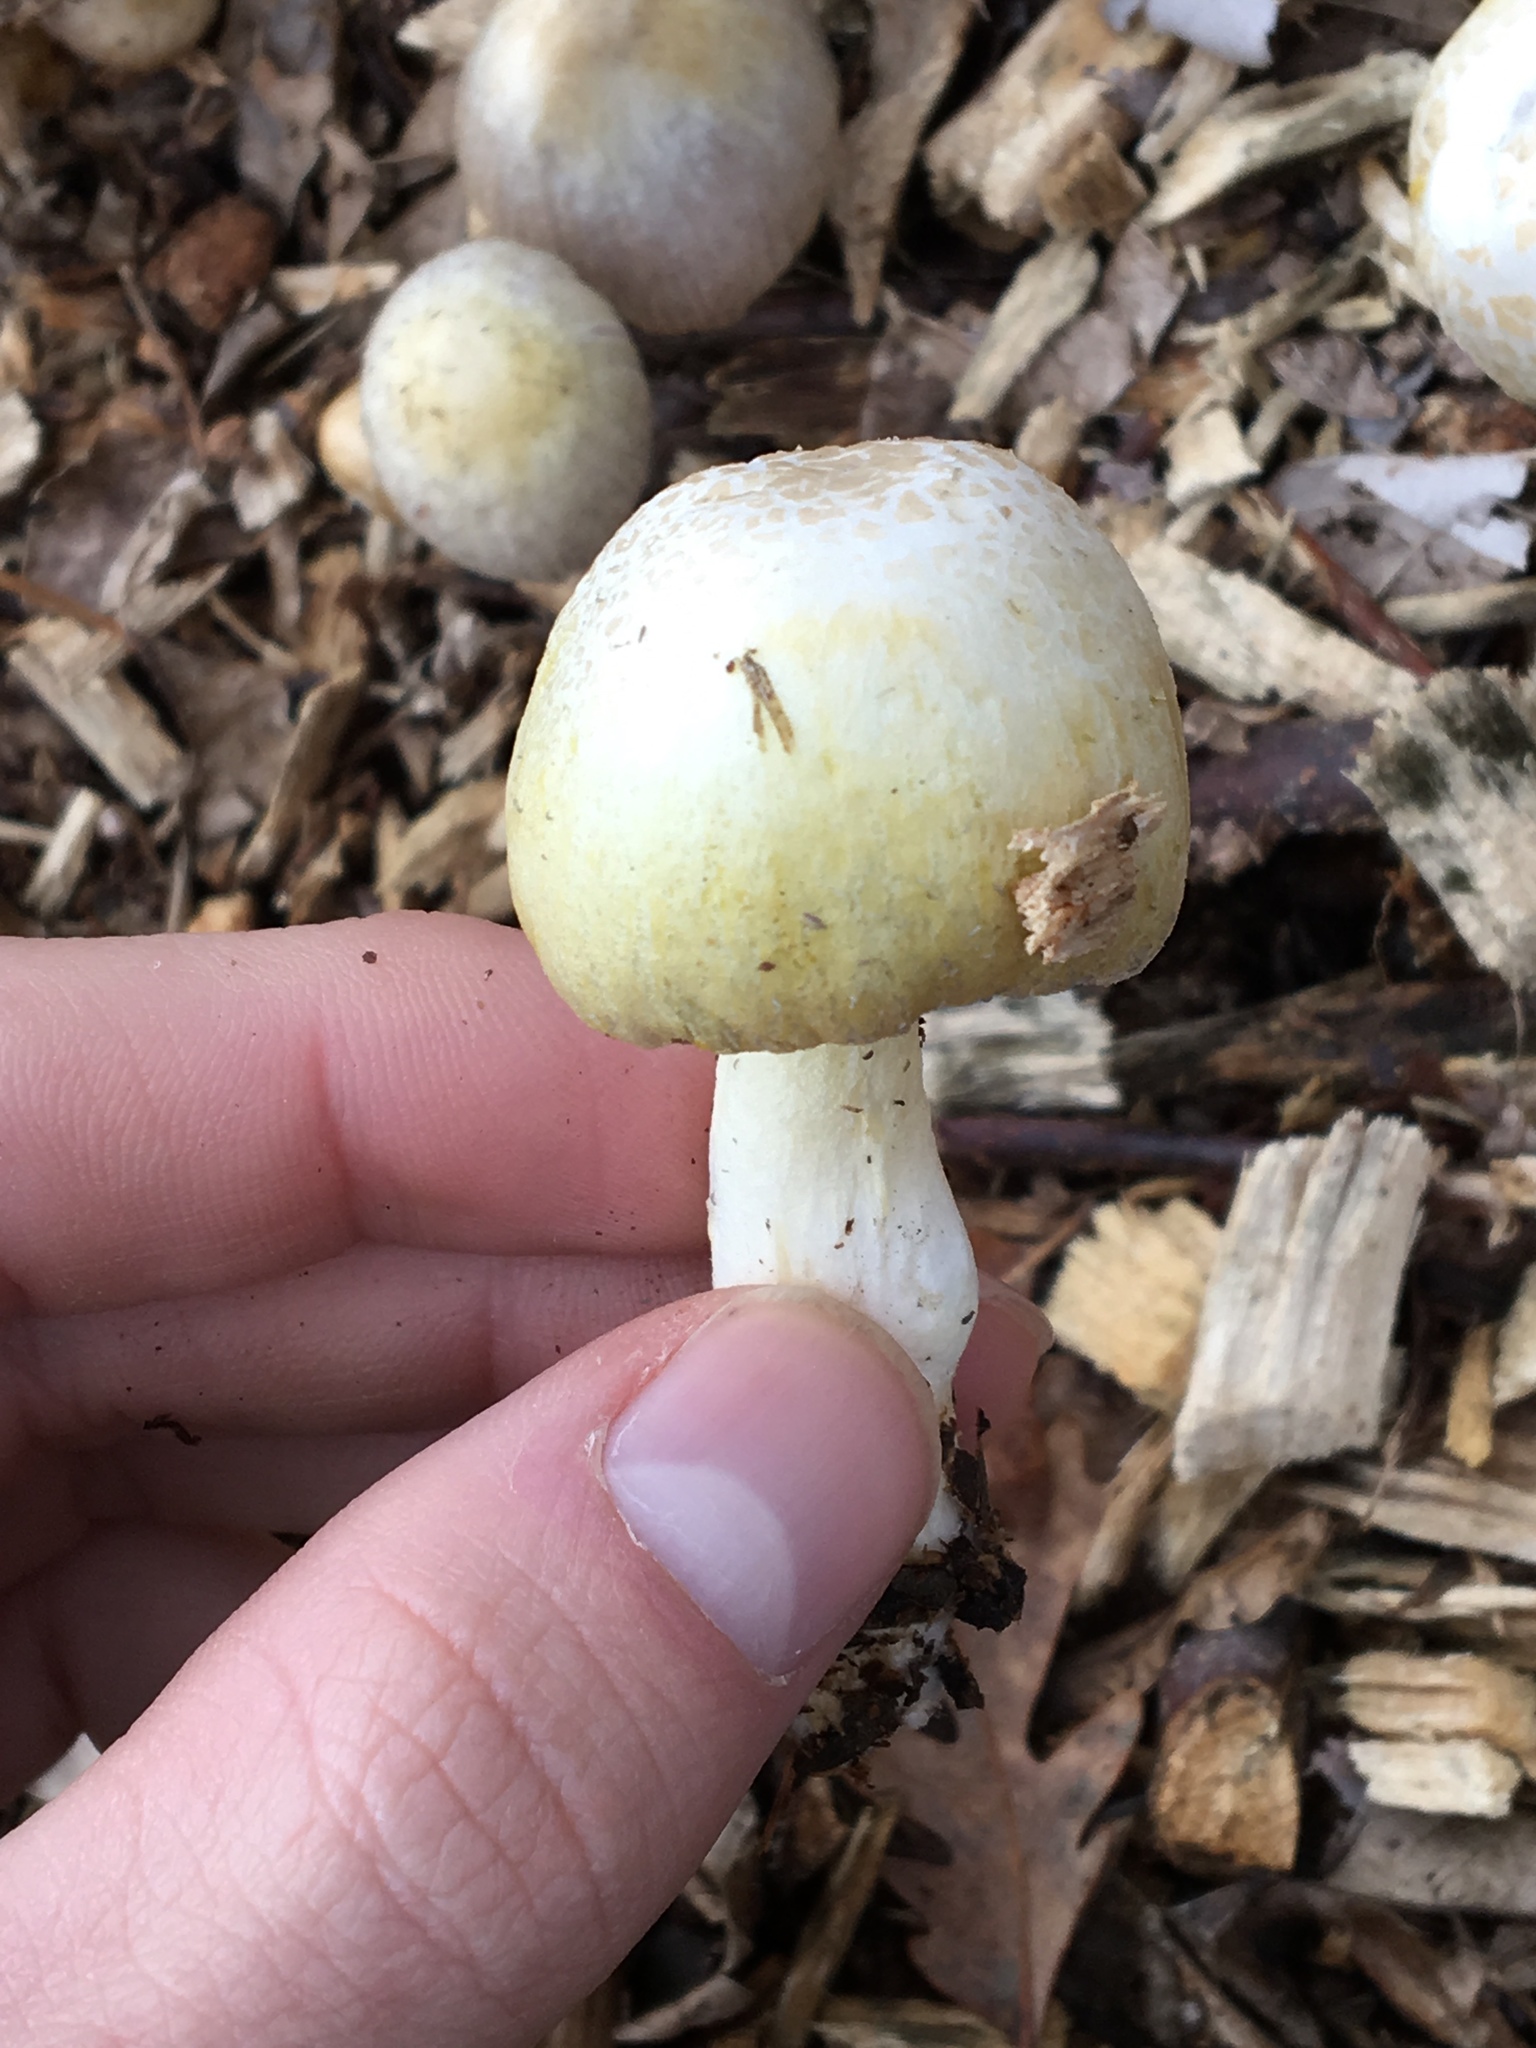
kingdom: Fungi
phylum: Basidiomycota
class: Agaricomycetes
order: Agaricales
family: Bolbitiaceae
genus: Bolbitius
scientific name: Bolbitius titubans
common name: Yellow fieldcap
